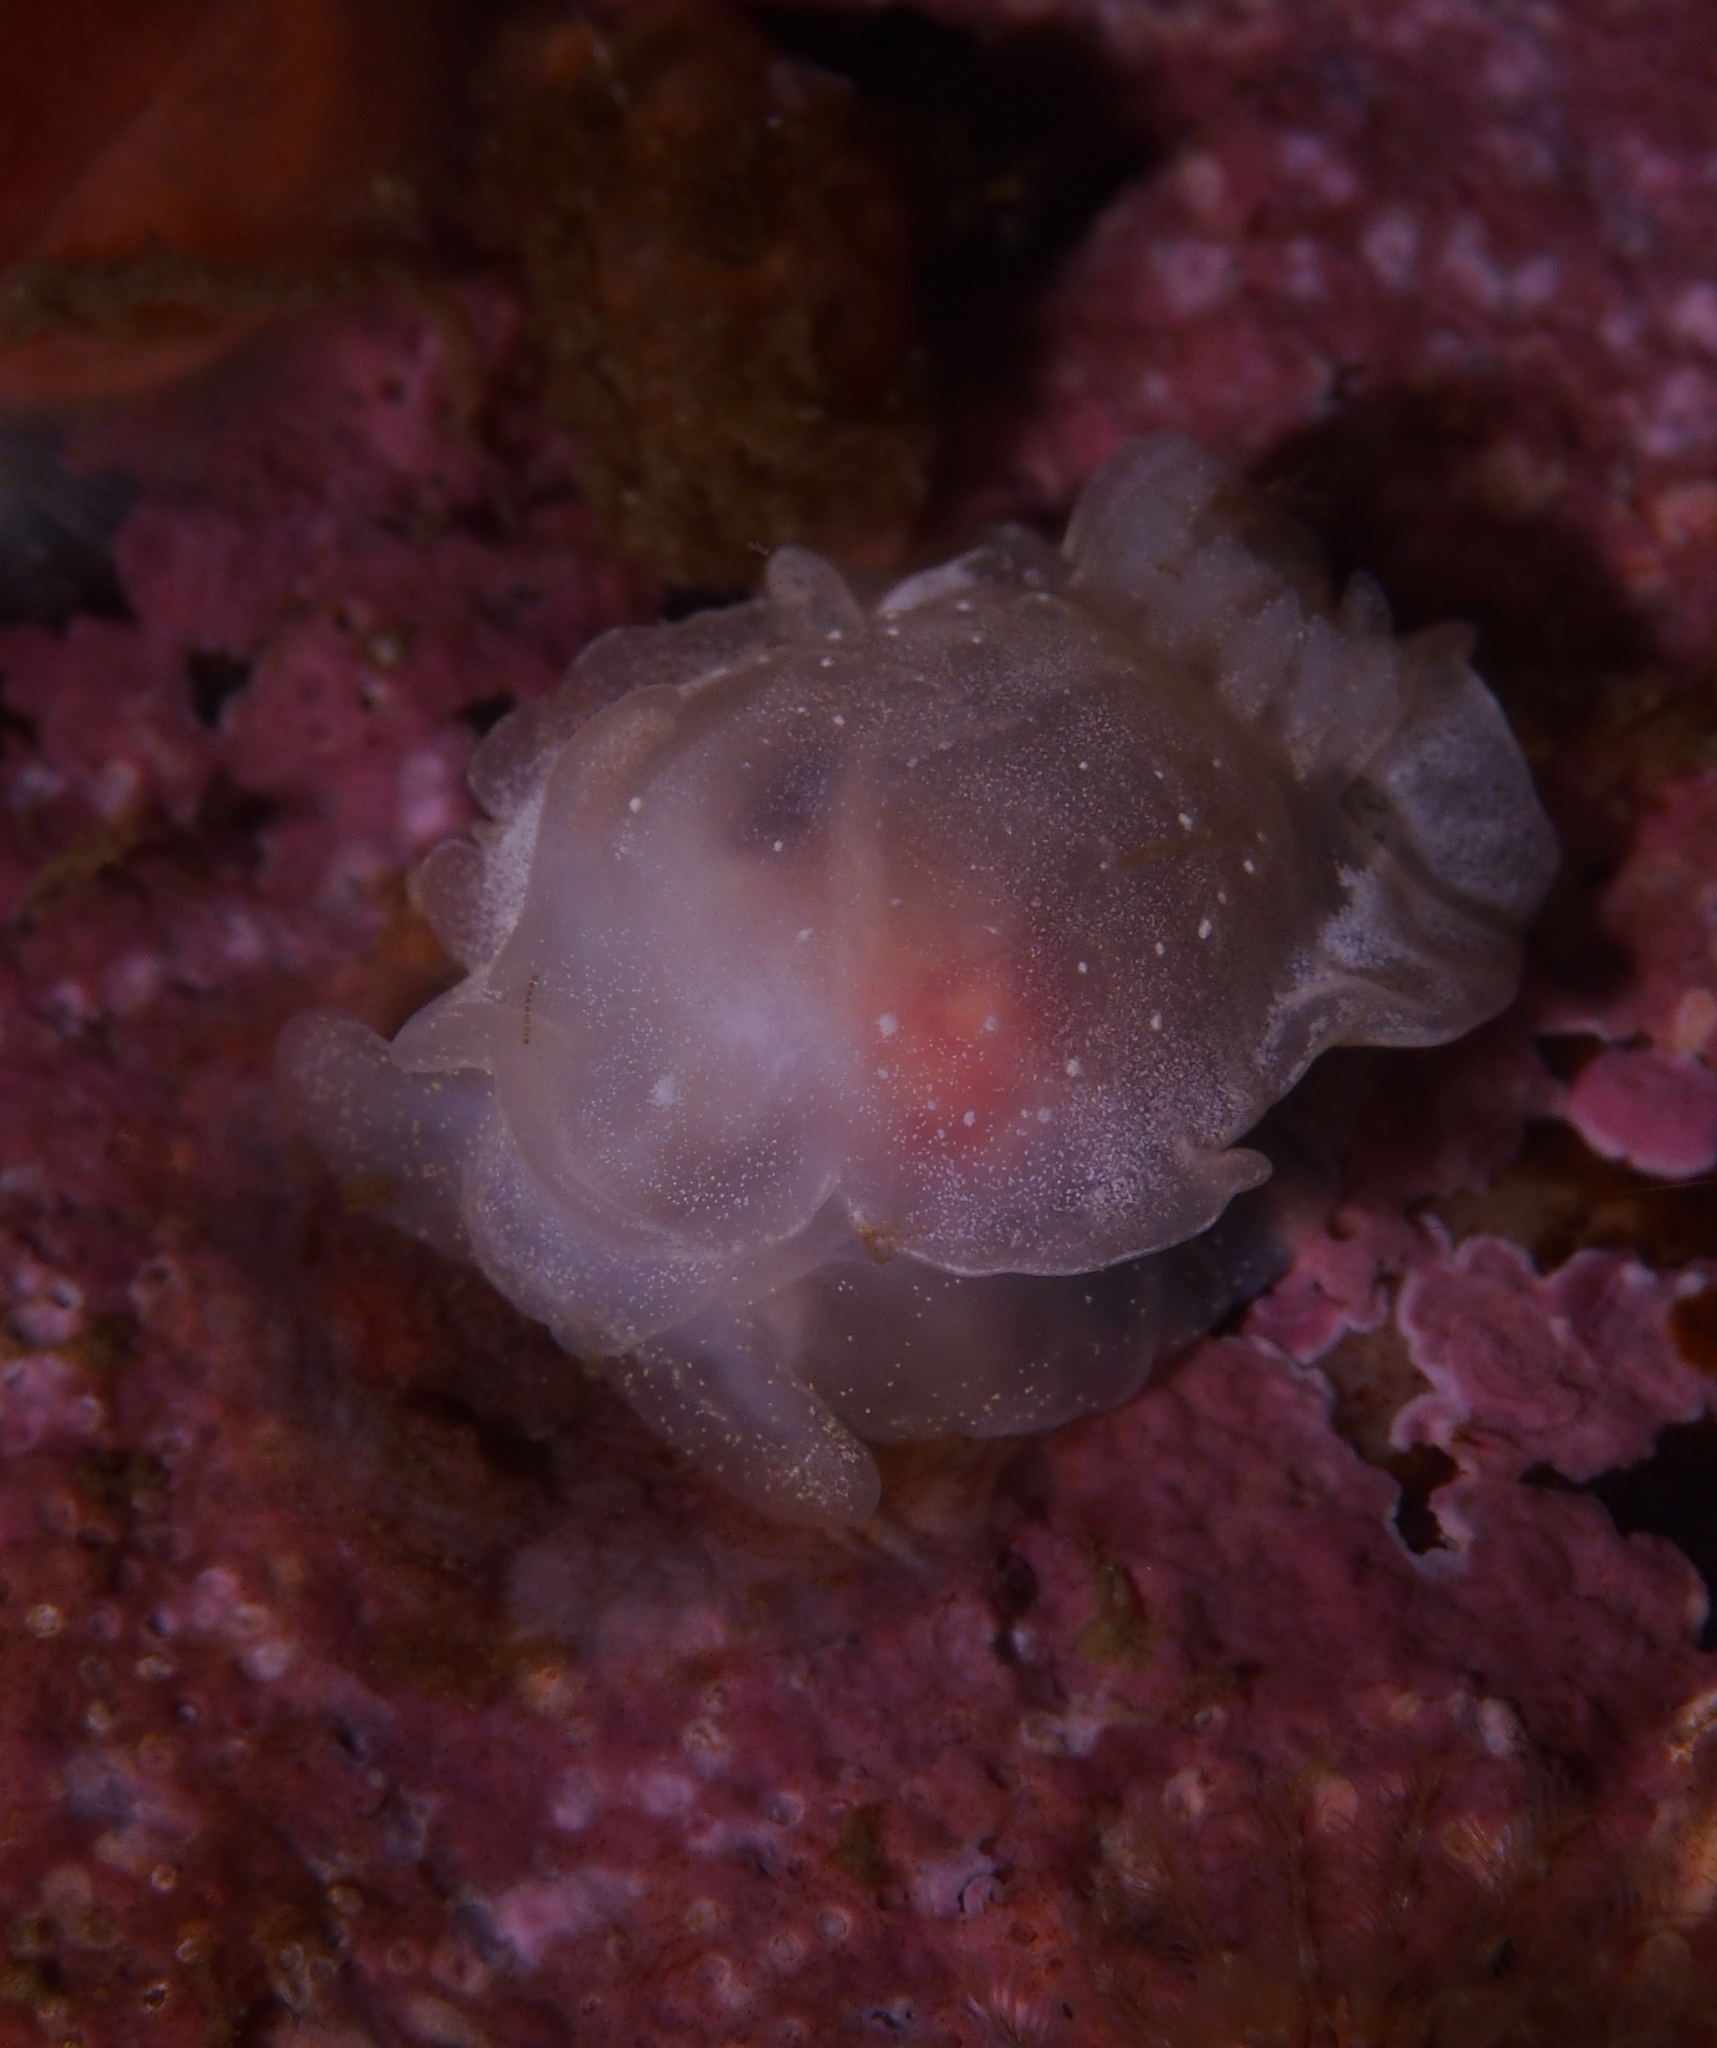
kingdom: Animalia
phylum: Mollusca
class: Gastropoda
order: Nudibranchia
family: Goniodorididae
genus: Okenia
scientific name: Okenia
